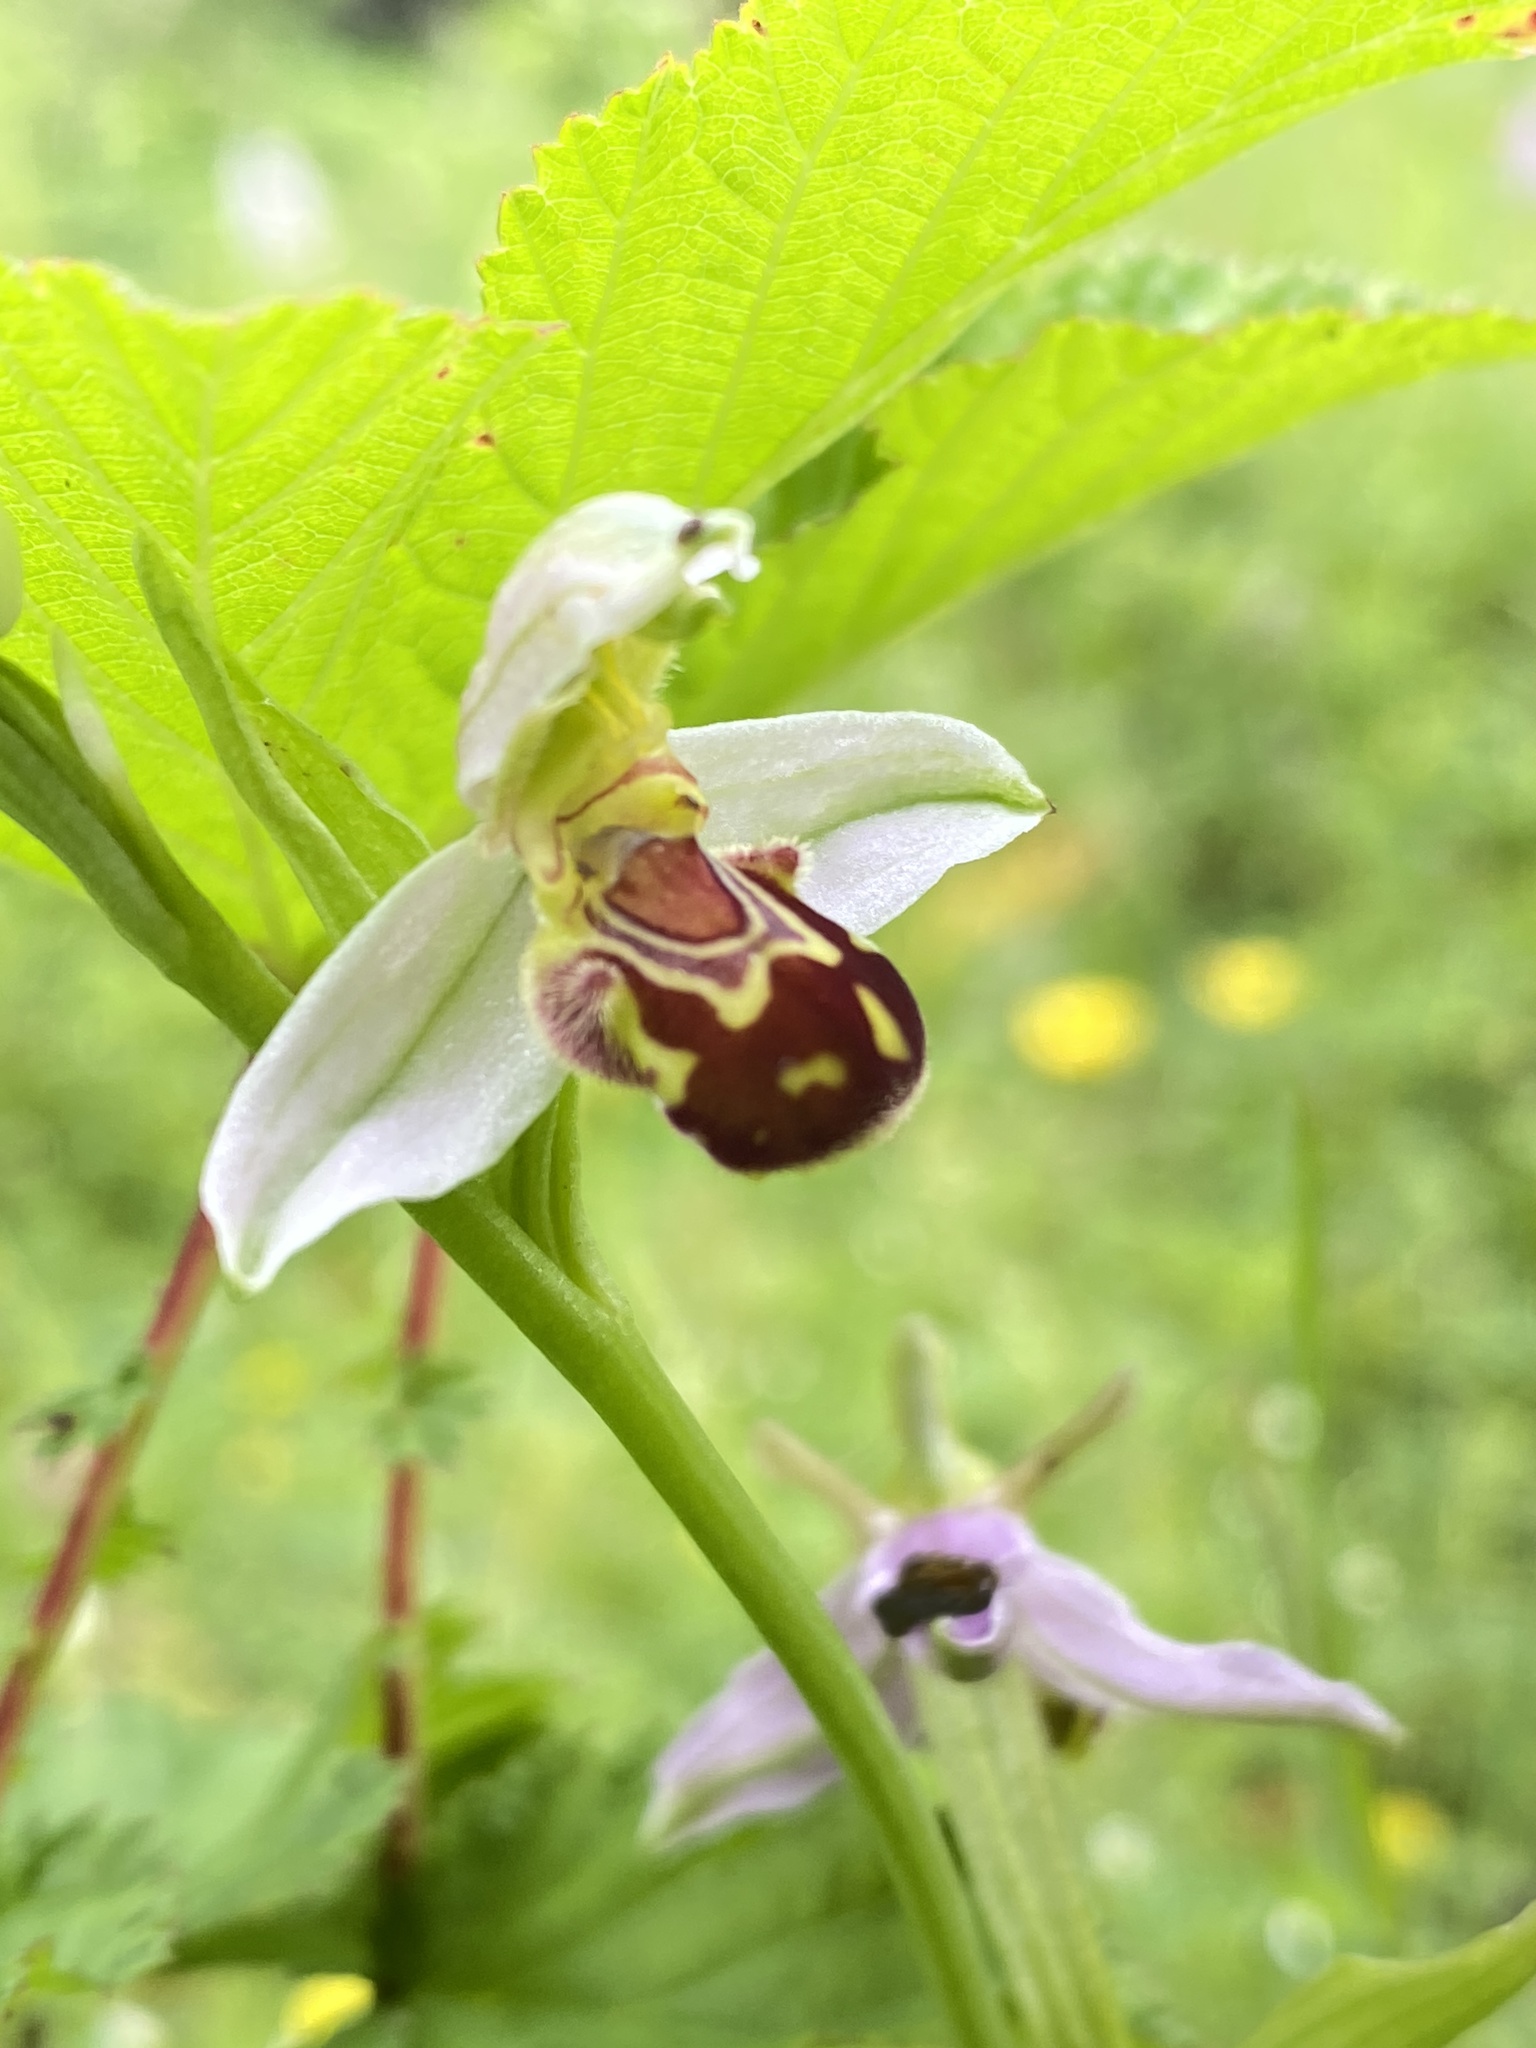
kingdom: Plantae
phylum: Tracheophyta
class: Liliopsida
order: Asparagales
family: Orchidaceae
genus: Ophrys
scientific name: Ophrys apifera
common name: Bee orchid
